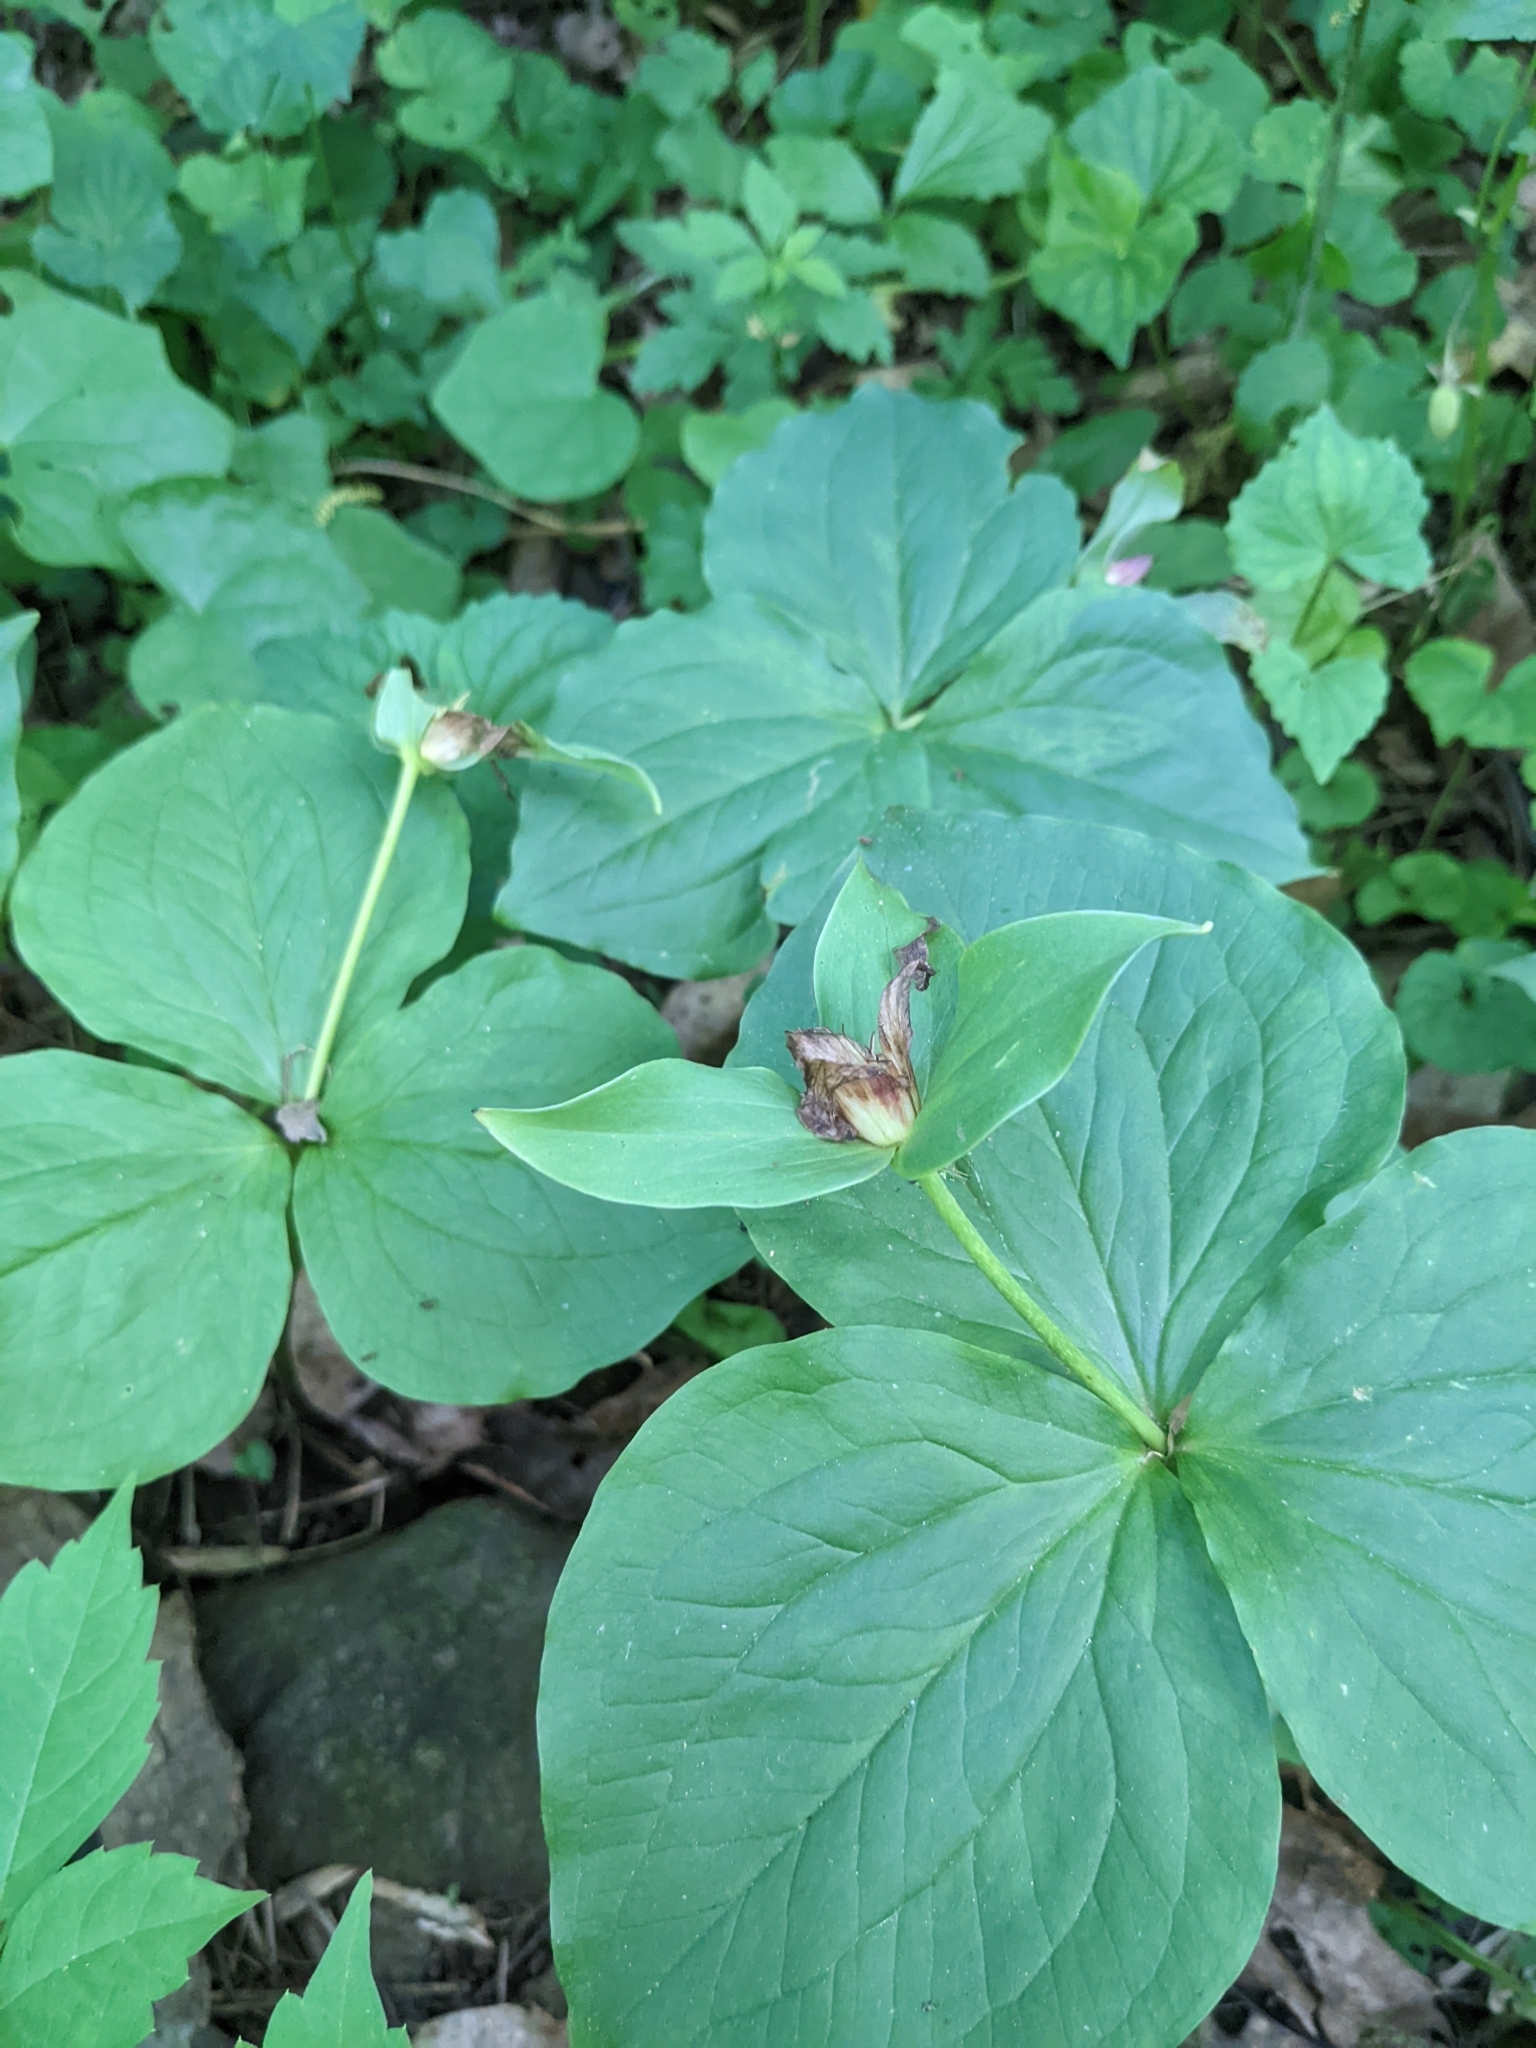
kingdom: Plantae
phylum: Tracheophyta
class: Liliopsida
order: Liliales
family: Melanthiaceae
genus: Trillium
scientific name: Trillium grandiflorum
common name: Great white trillium
